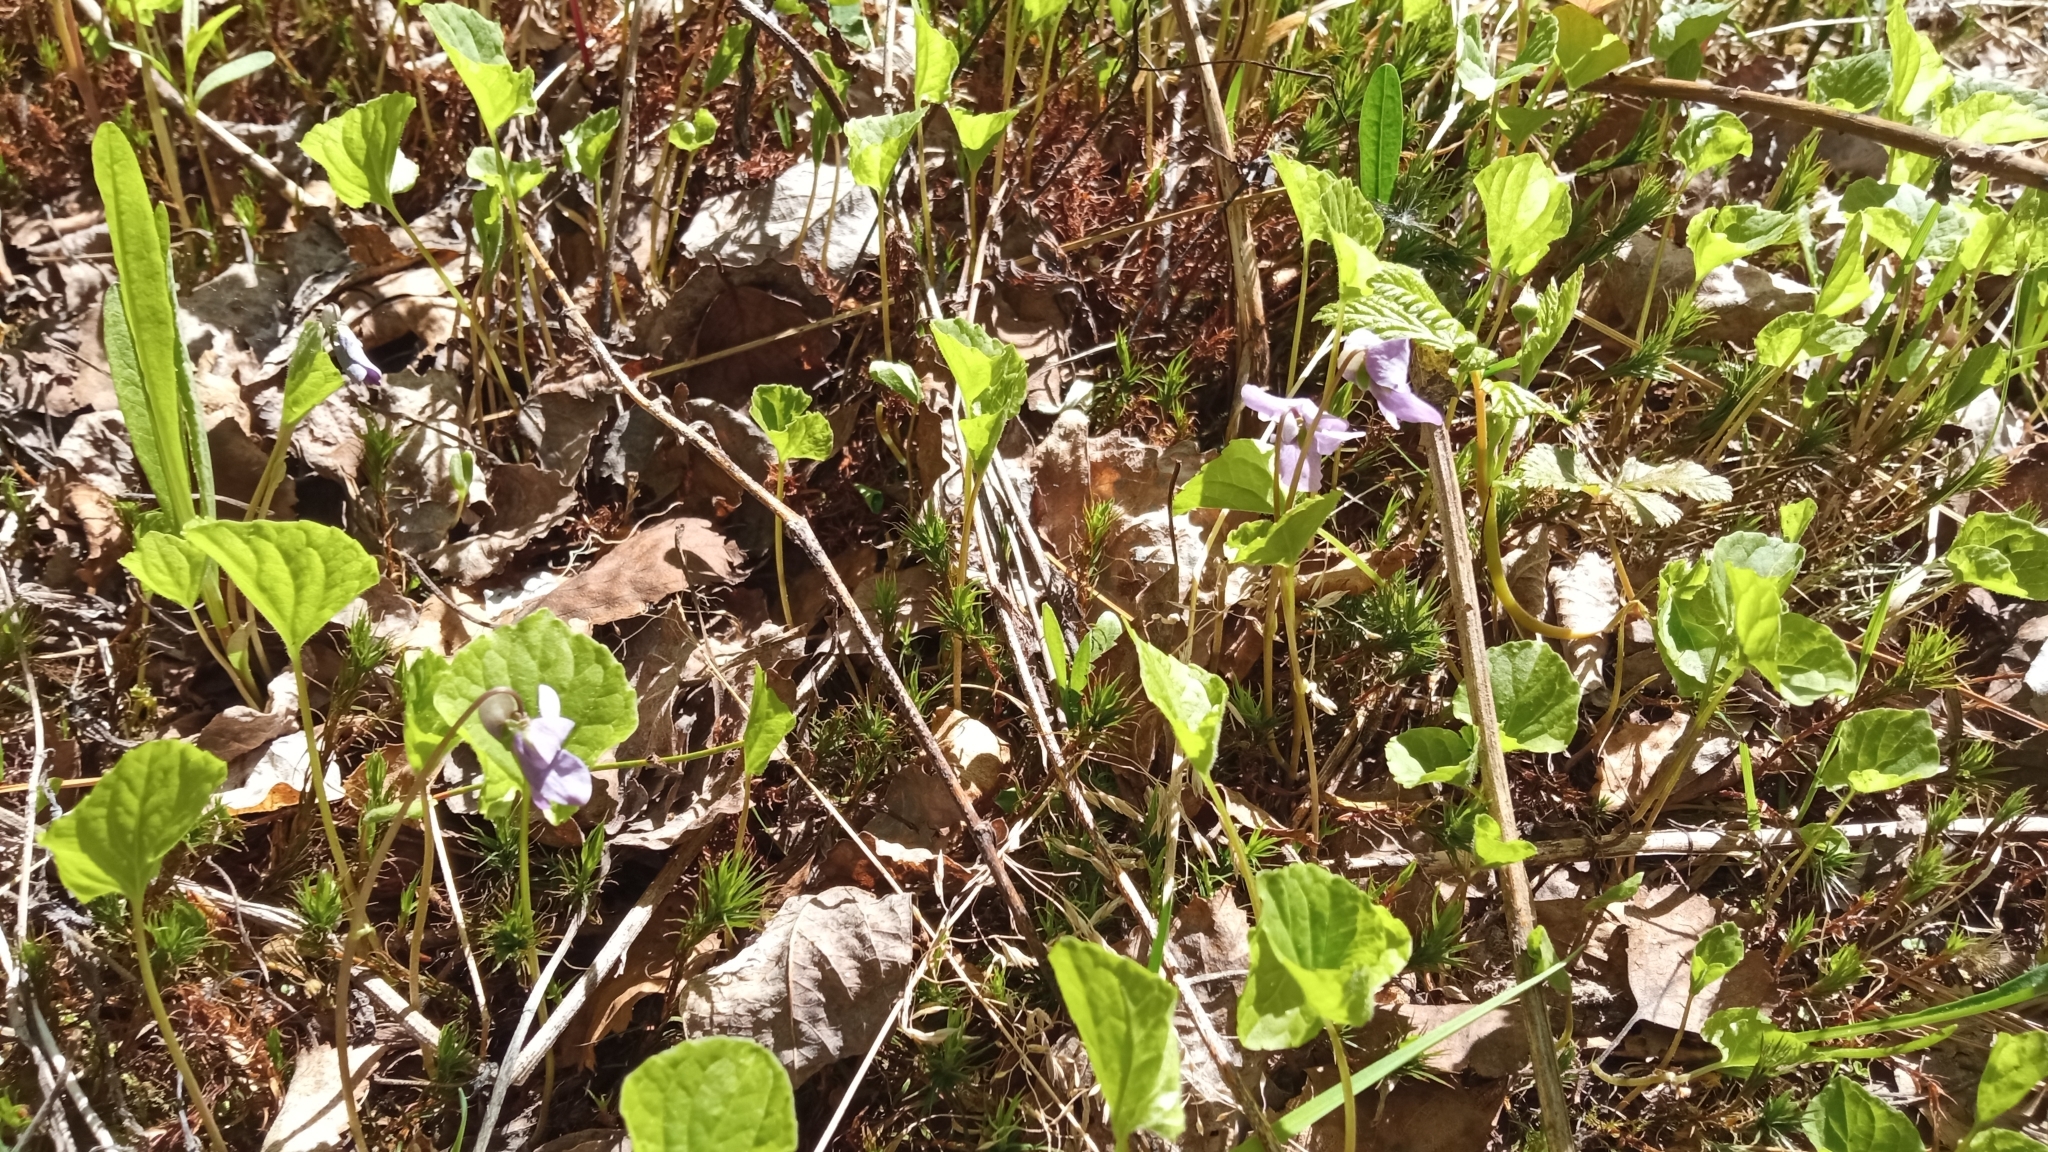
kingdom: Plantae
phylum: Tracheophyta
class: Magnoliopsida
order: Malpighiales
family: Violaceae
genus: Viola
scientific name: Viola epipsila
